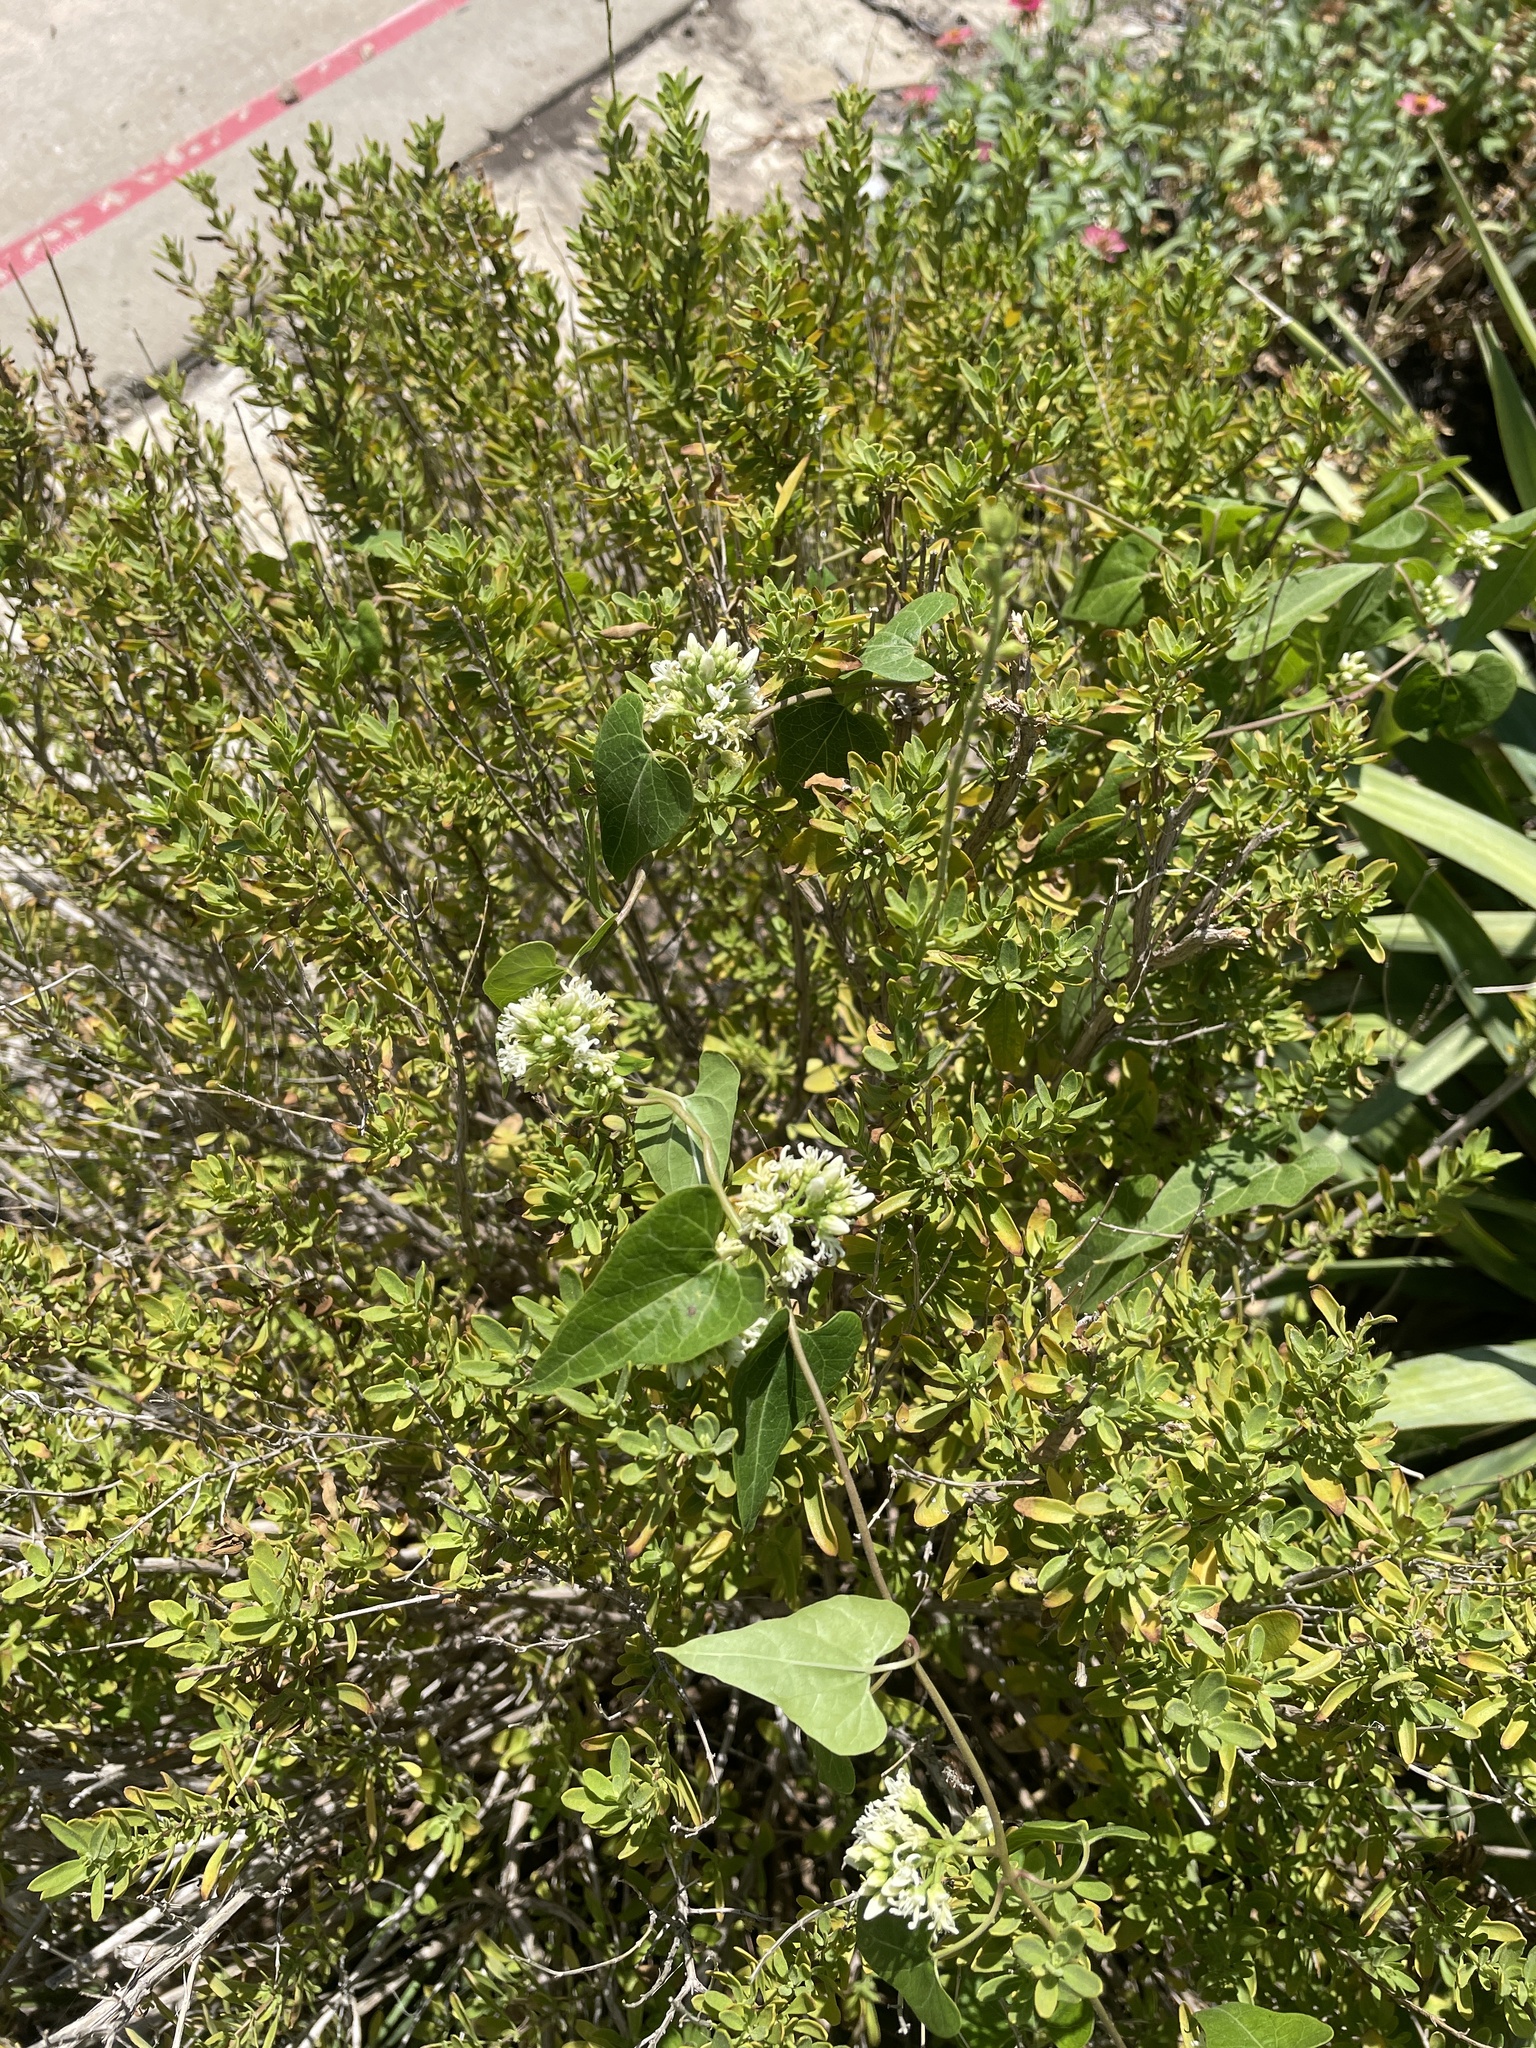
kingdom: Plantae
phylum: Tracheophyta
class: Magnoliopsida
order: Gentianales
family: Apocynaceae
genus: Cynanchum
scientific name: Cynanchum laeve
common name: Sandvine
